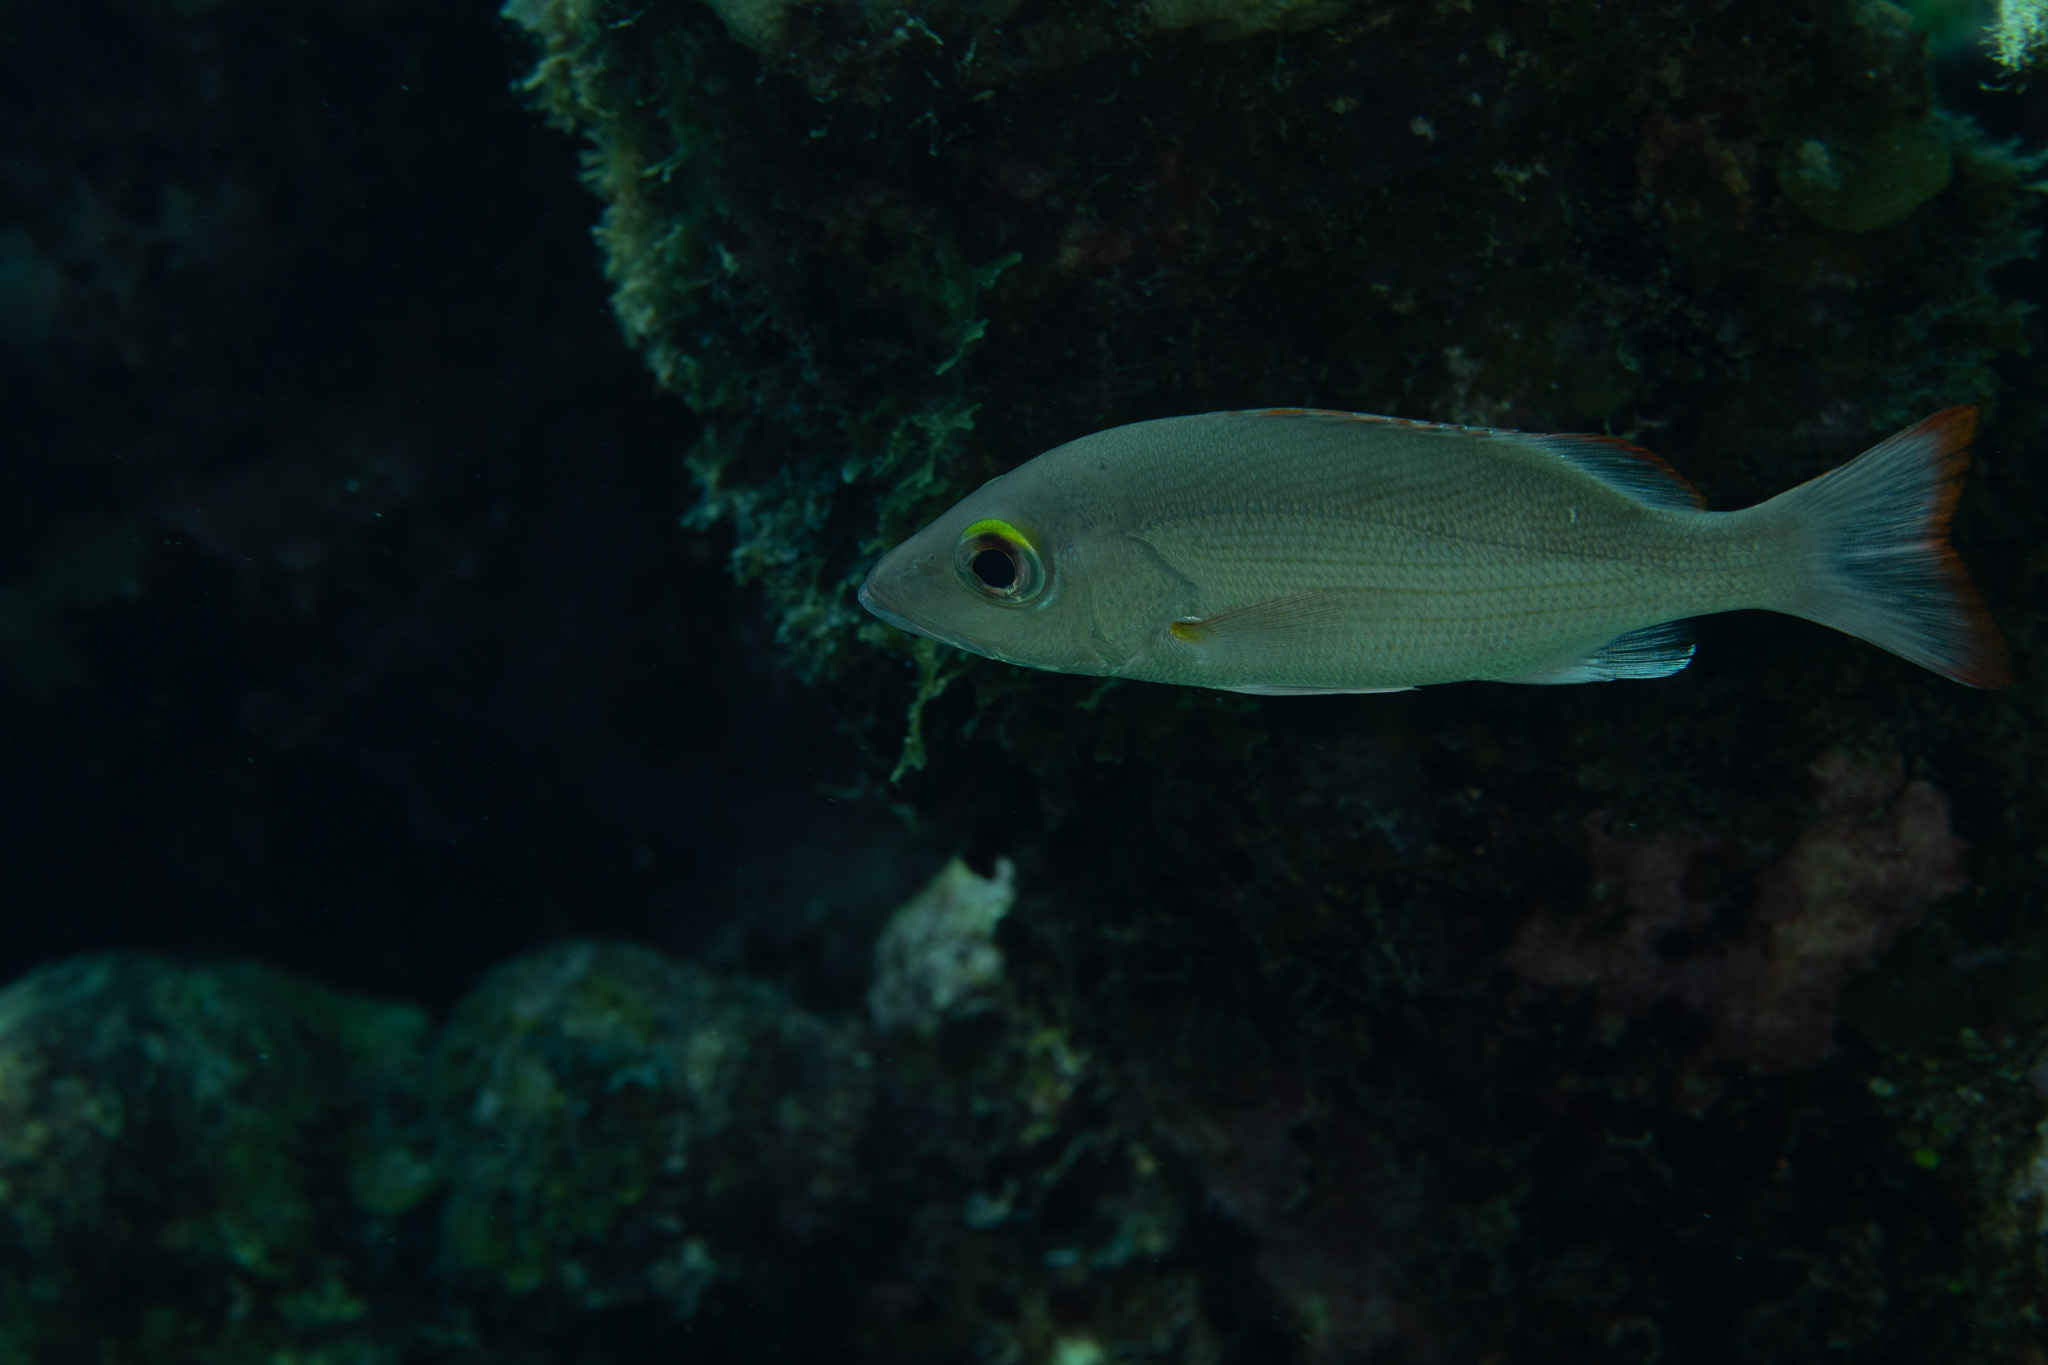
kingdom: Animalia
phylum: Chordata
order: Perciformes
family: Lutjanidae
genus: Lutjanus
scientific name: Lutjanus mahogoni
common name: Spot snapper
